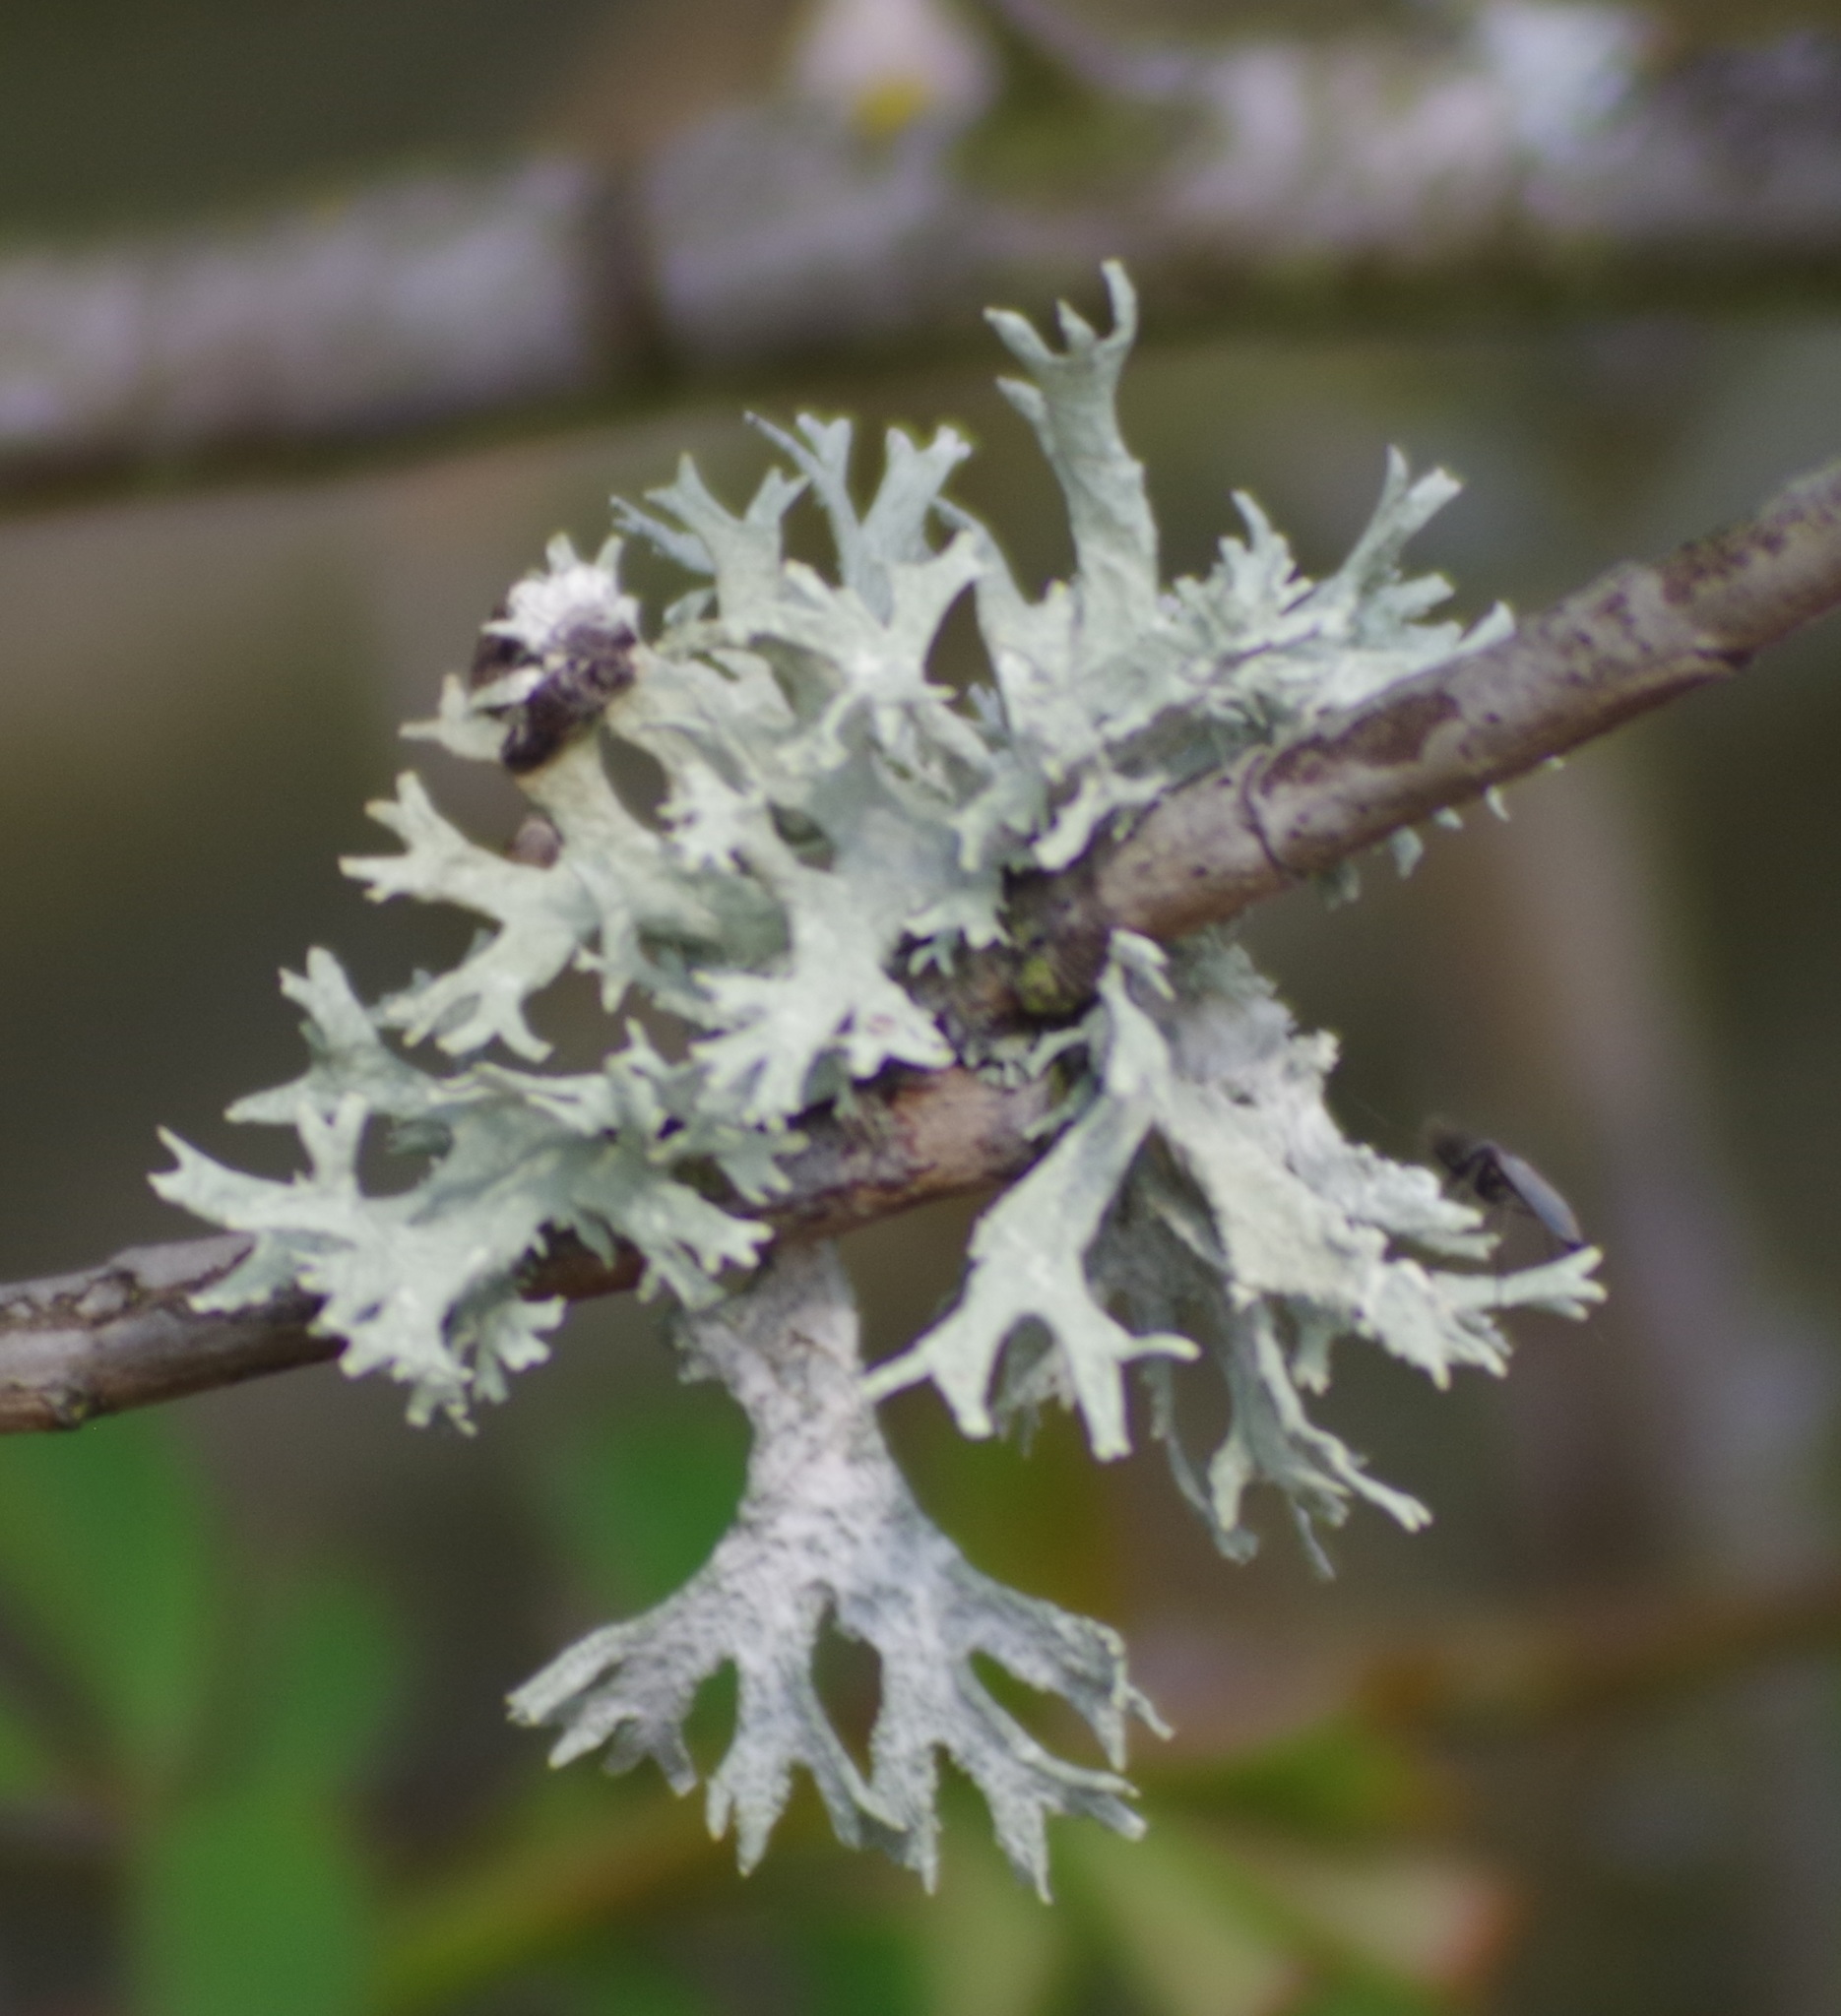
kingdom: Fungi
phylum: Ascomycota
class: Lecanoromycetes
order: Lecanorales
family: Parmeliaceae
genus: Evernia
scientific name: Evernia prunastri
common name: Oak moss
